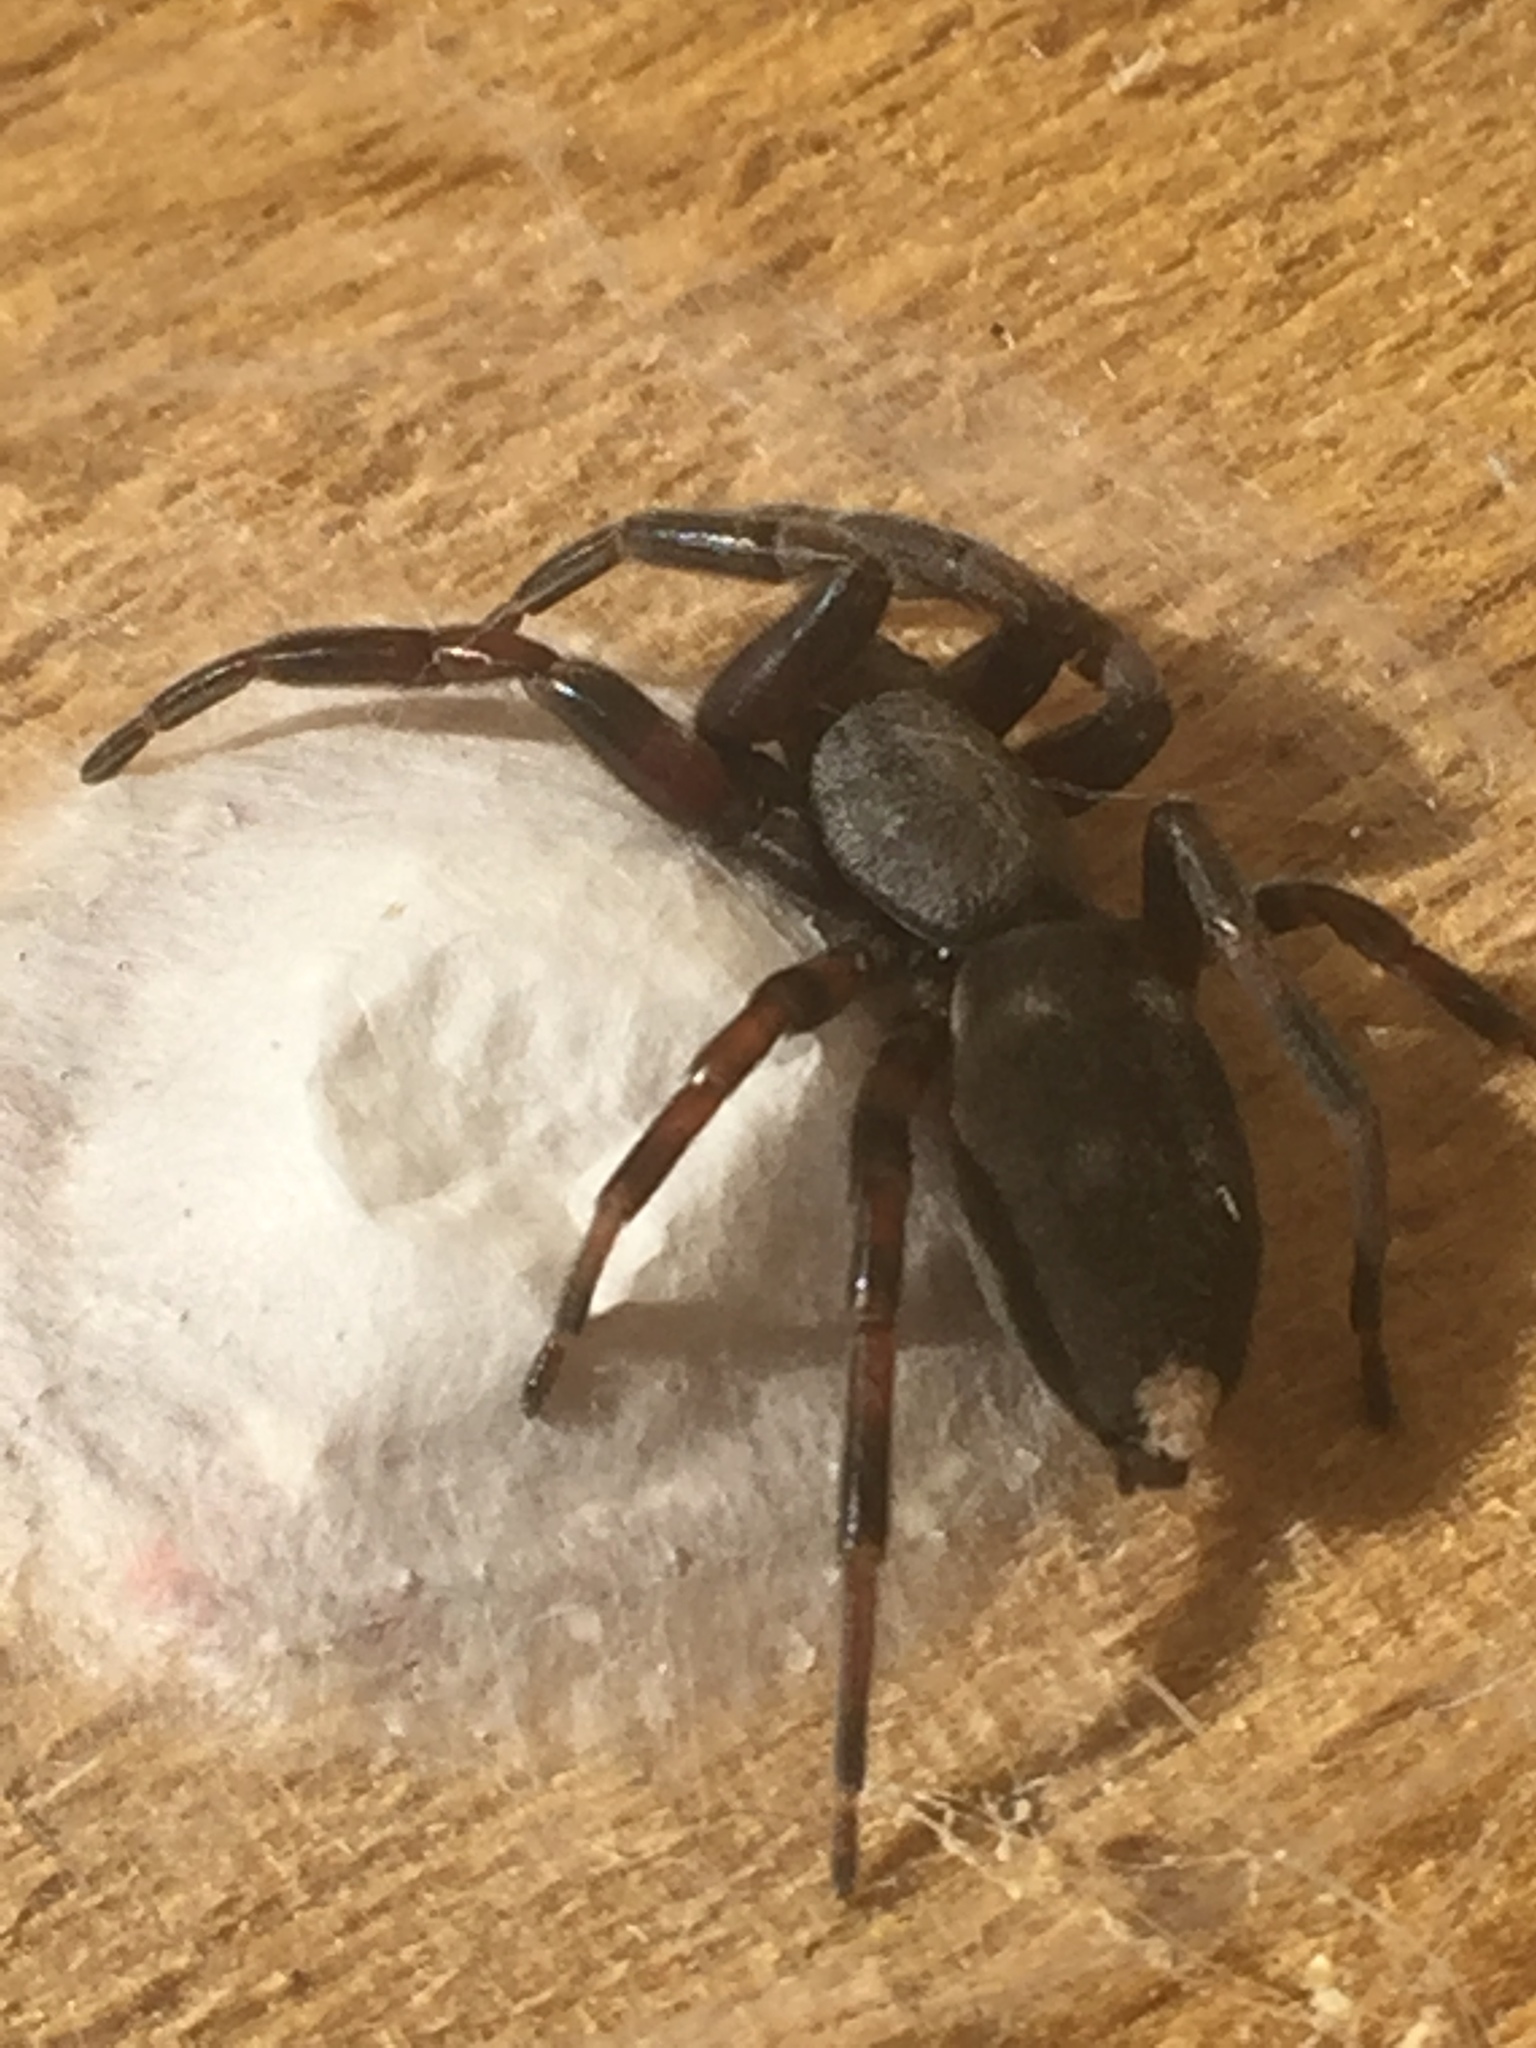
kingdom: Animalia
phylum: Arthropoda
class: Arachnida
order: Araneae
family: Lamponidae
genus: Lampona
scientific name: Lampona murina
